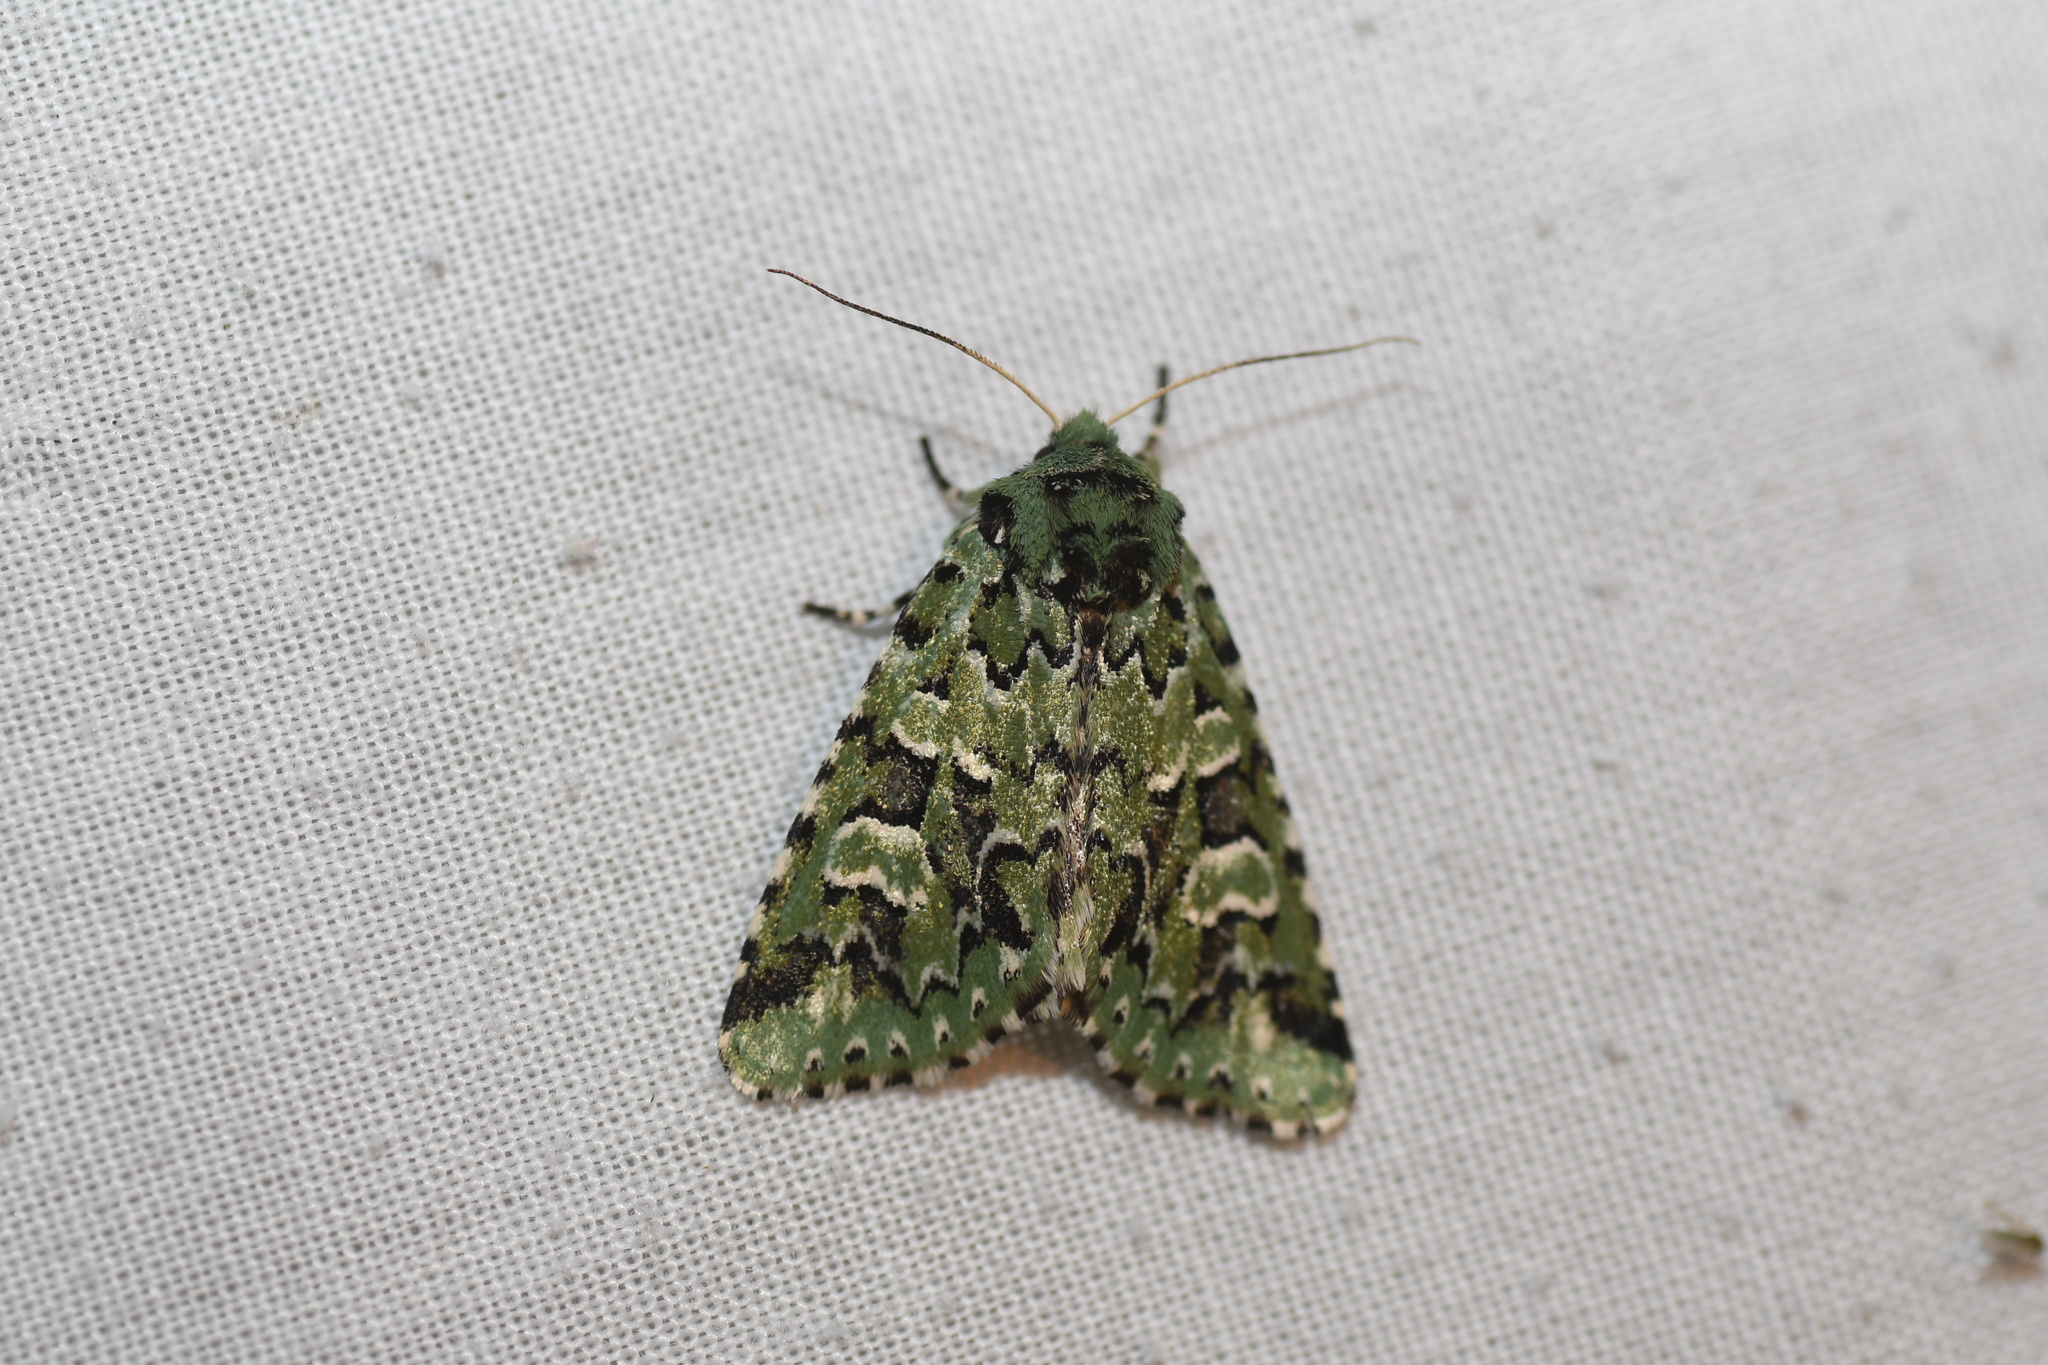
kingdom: Animalia
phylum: Arthropoda
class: Insecta
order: Lepidoptera
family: Noctuidae
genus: Feralia
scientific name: Feralia comstocki
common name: Comstock's sallow
